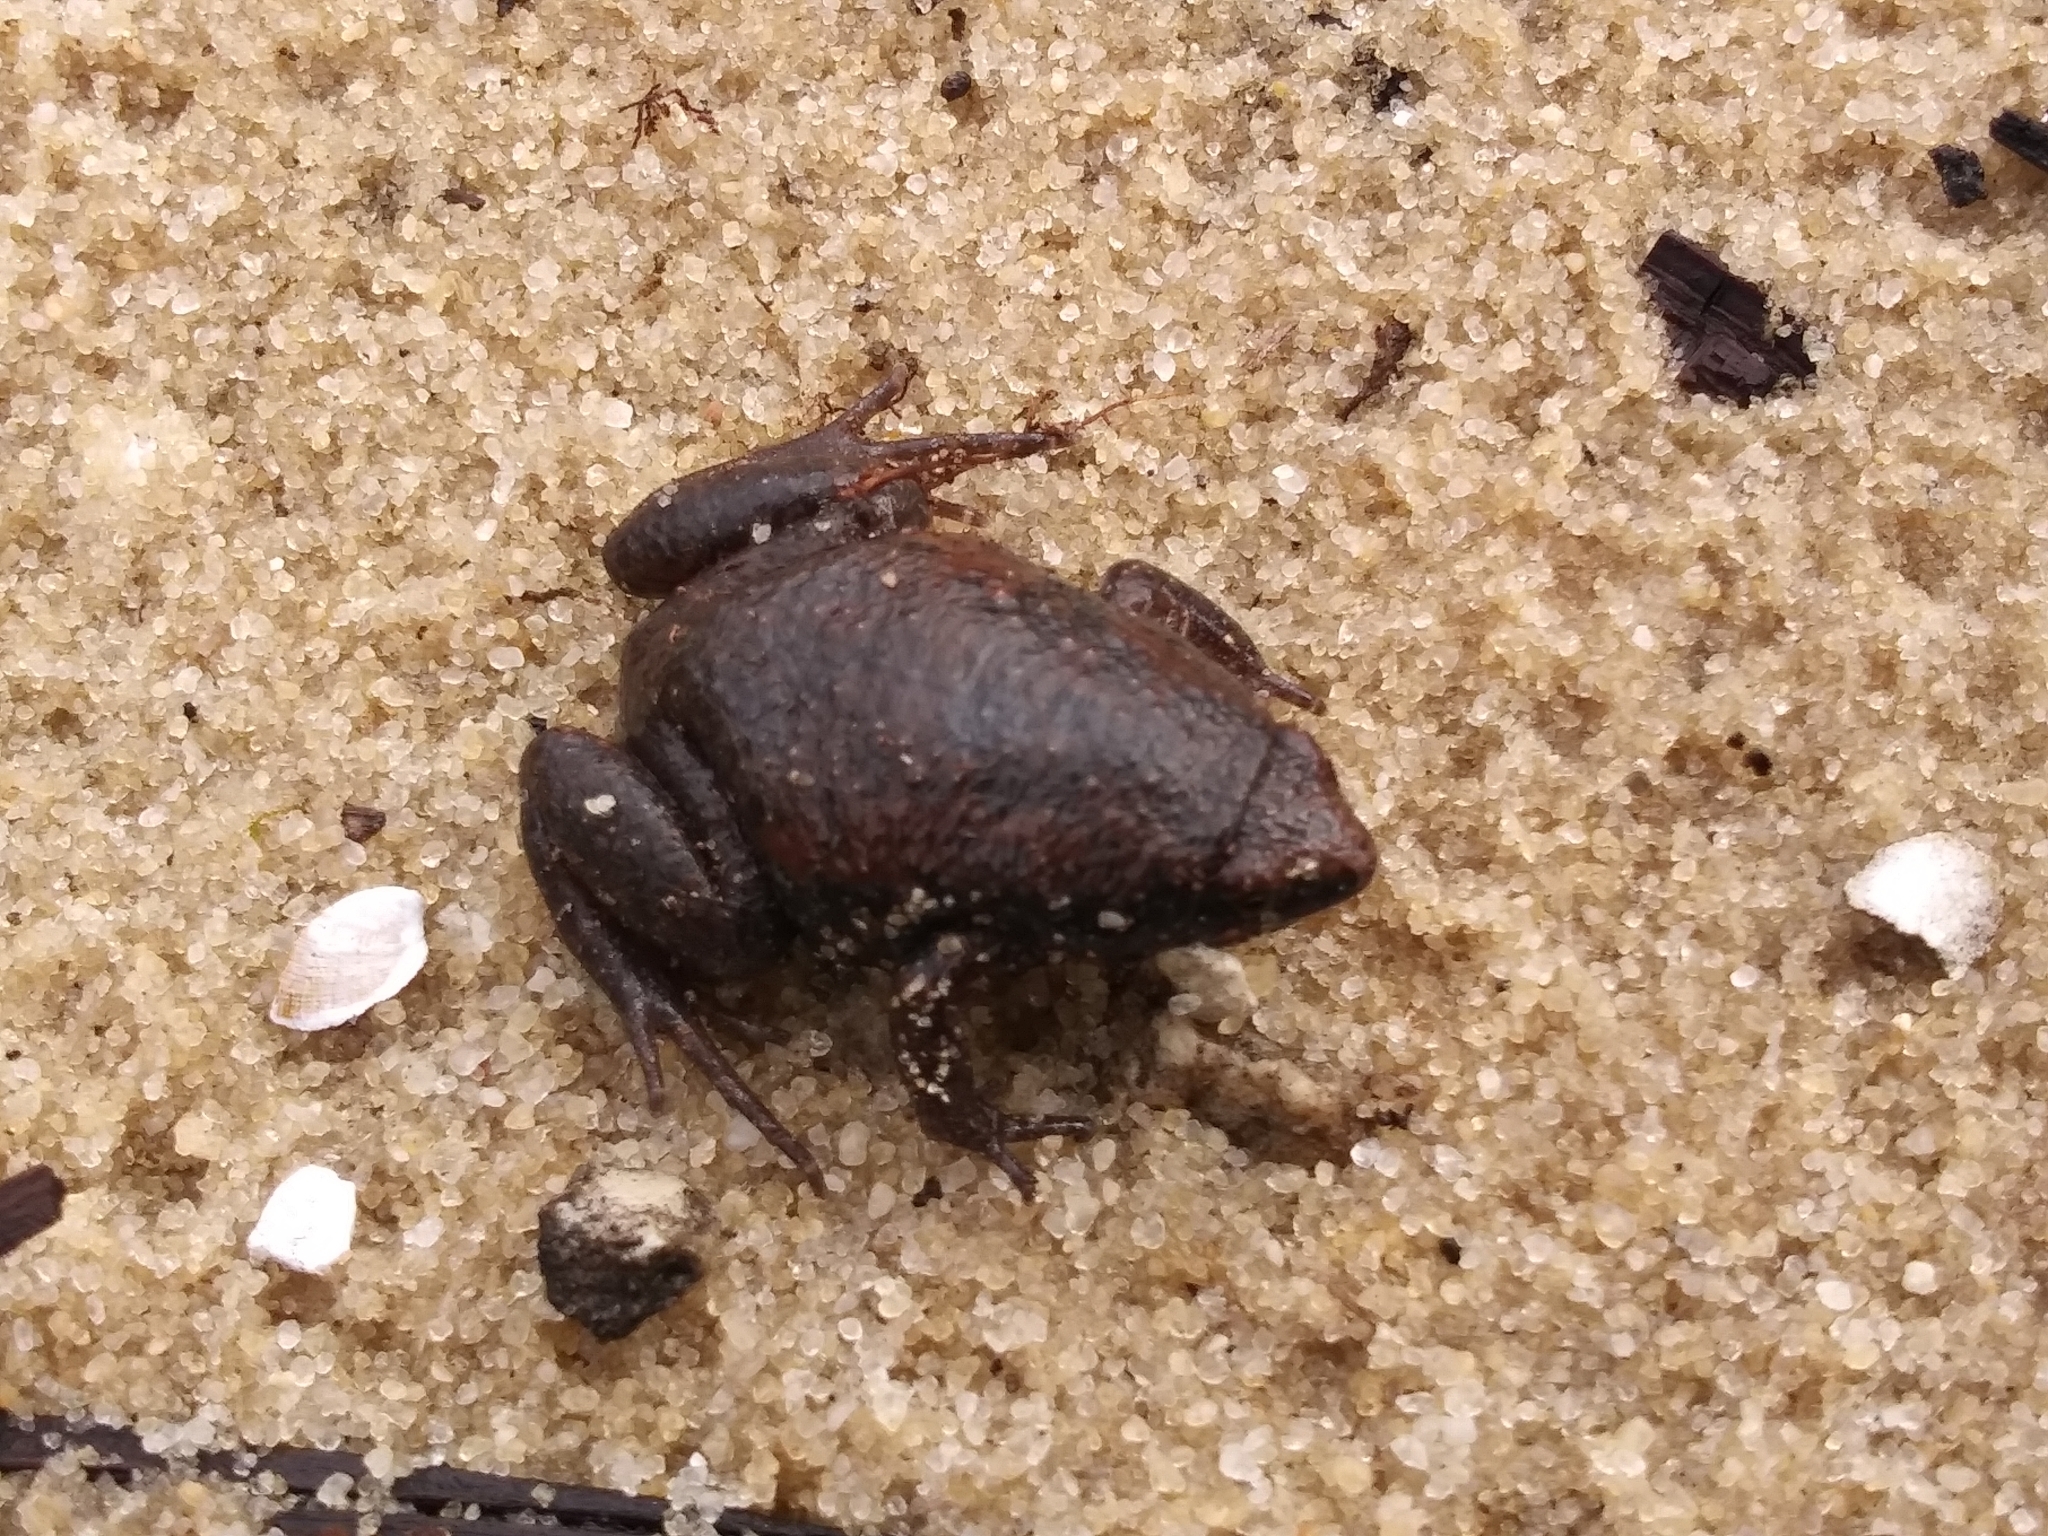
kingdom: Animalia
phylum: Chordata
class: Amphibia
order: Anura
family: Microhylidae
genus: Gastrophryne
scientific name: Gastrophryne carolinensis
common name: Eastern narrowmouth toad
